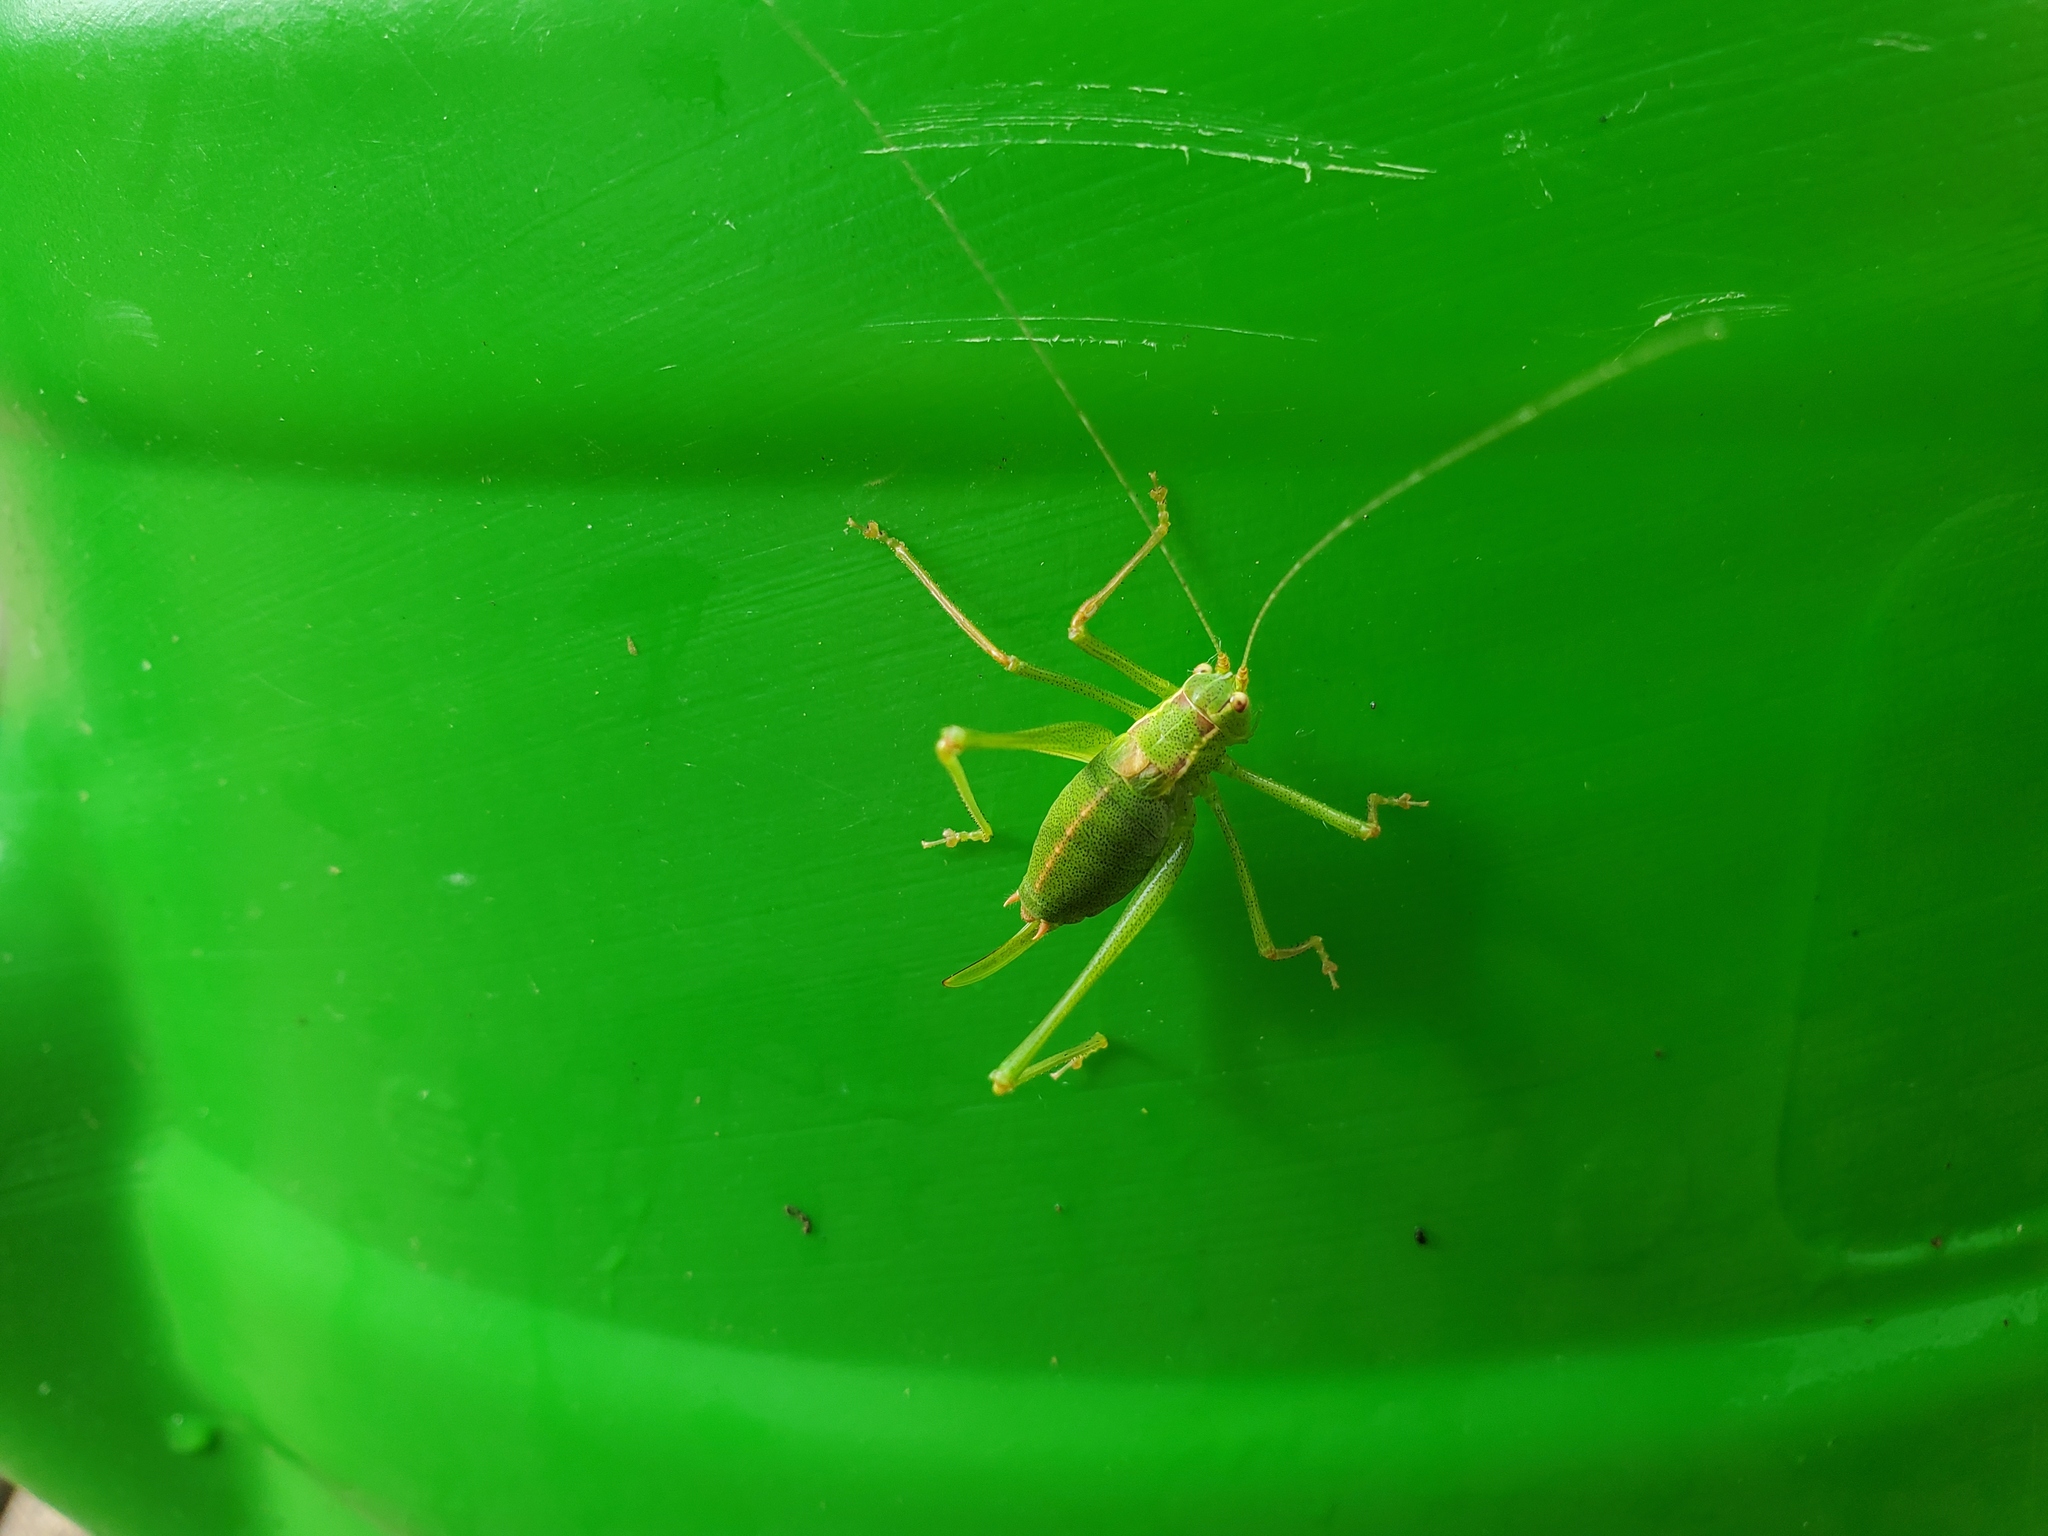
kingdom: Animalia
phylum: Arthropoda
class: Insecta
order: Orthoptera
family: Tettigoniidae
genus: Leptophyes
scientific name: Leptophyes punctatissima
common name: Speckled bush-cricket
